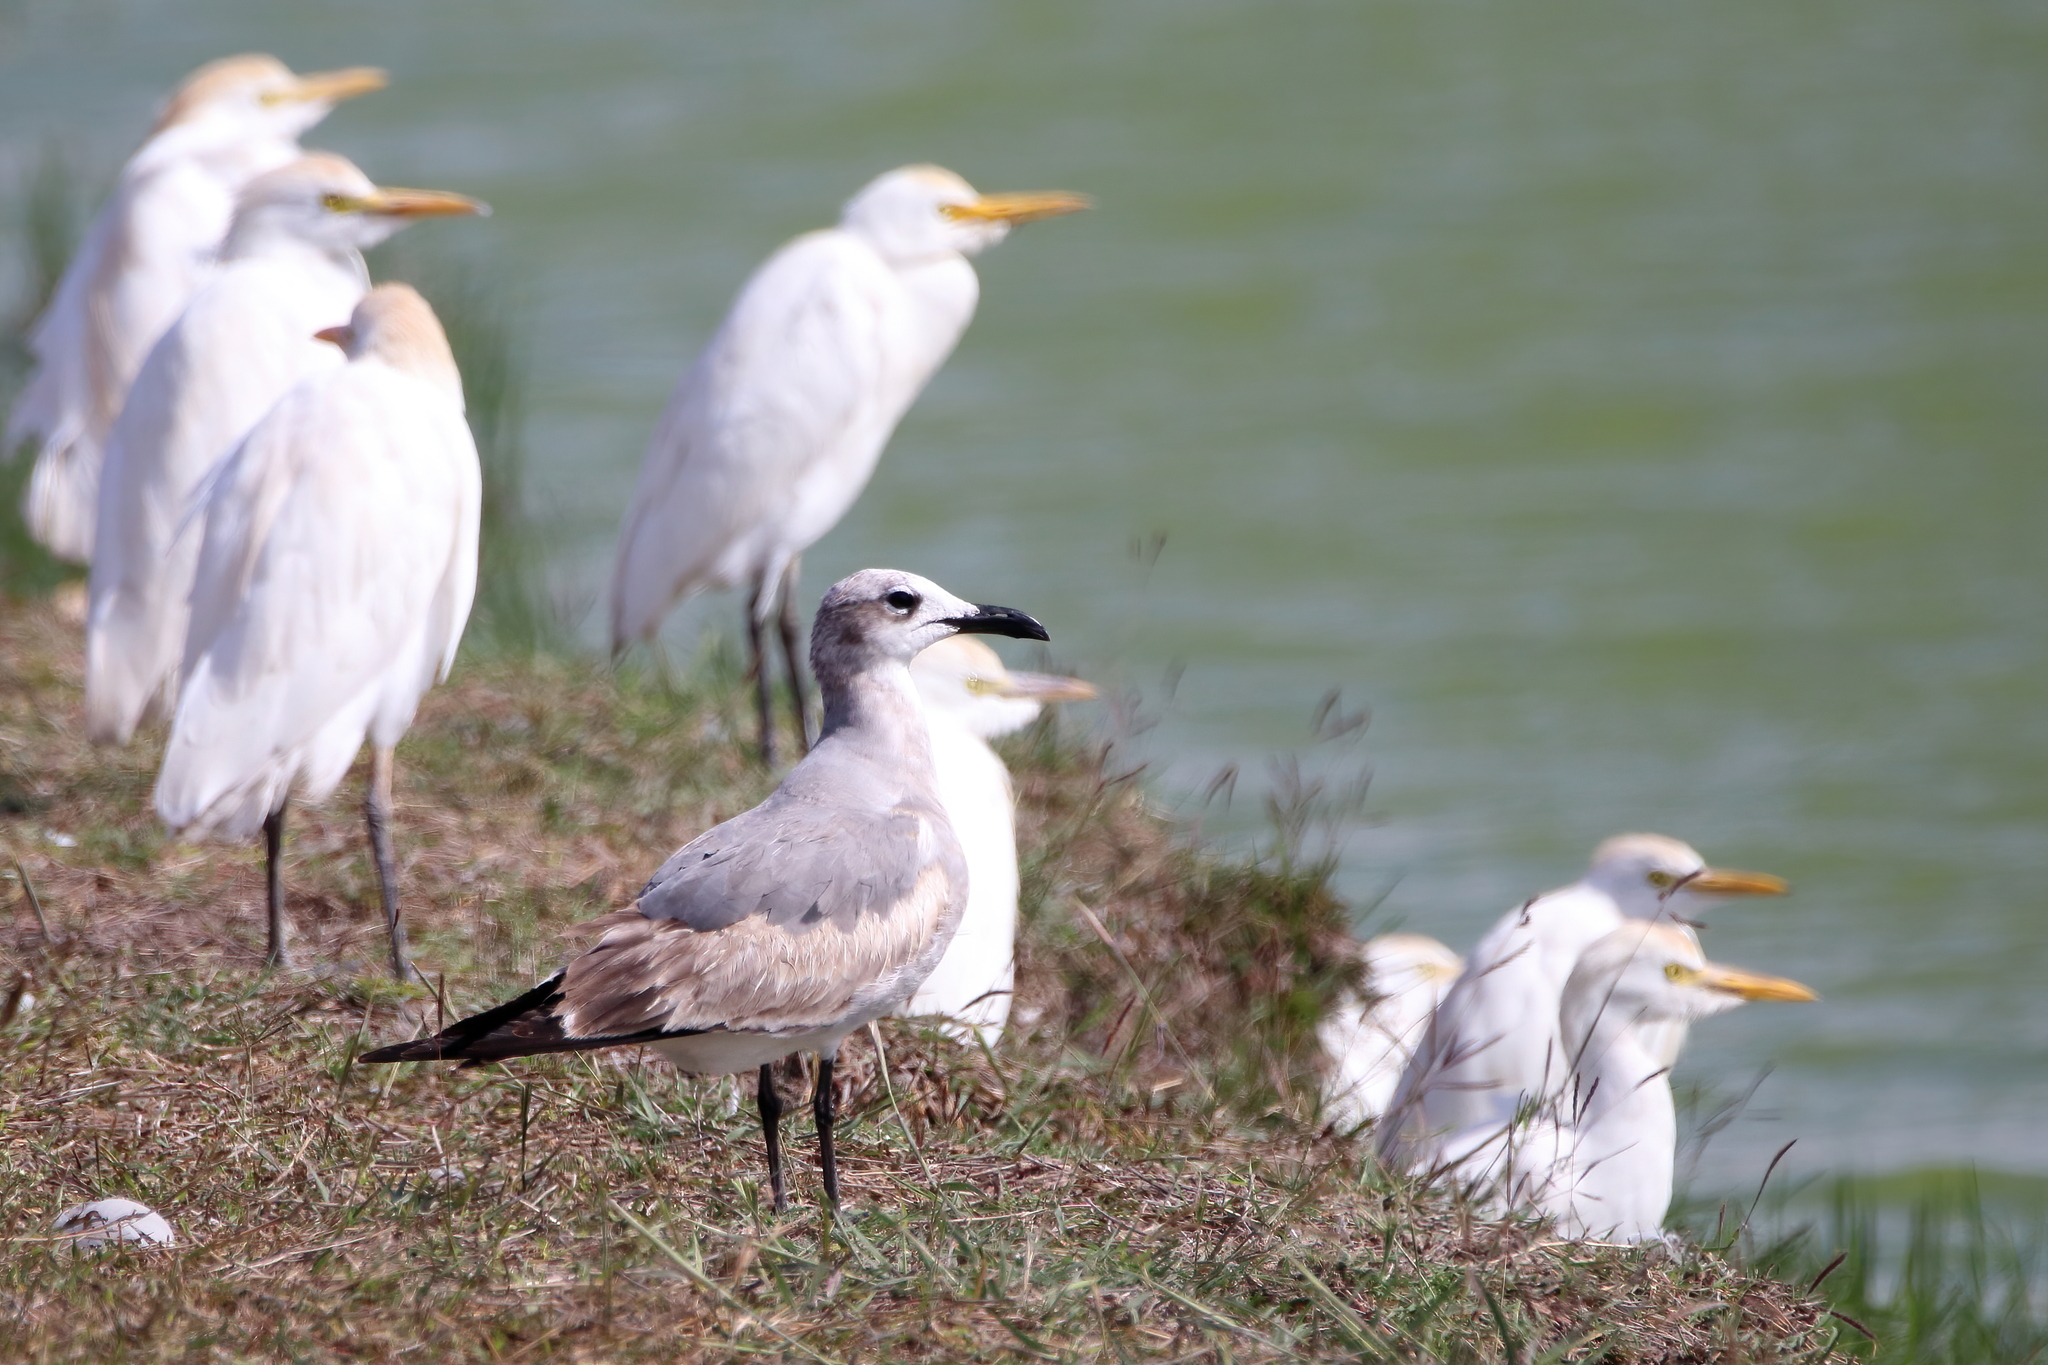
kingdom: Animalia
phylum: Chordata
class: Aves
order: Charadriiformes
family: Laridae
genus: Leucophaeus
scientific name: Leucophaeus atricilla
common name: Laughing gull
